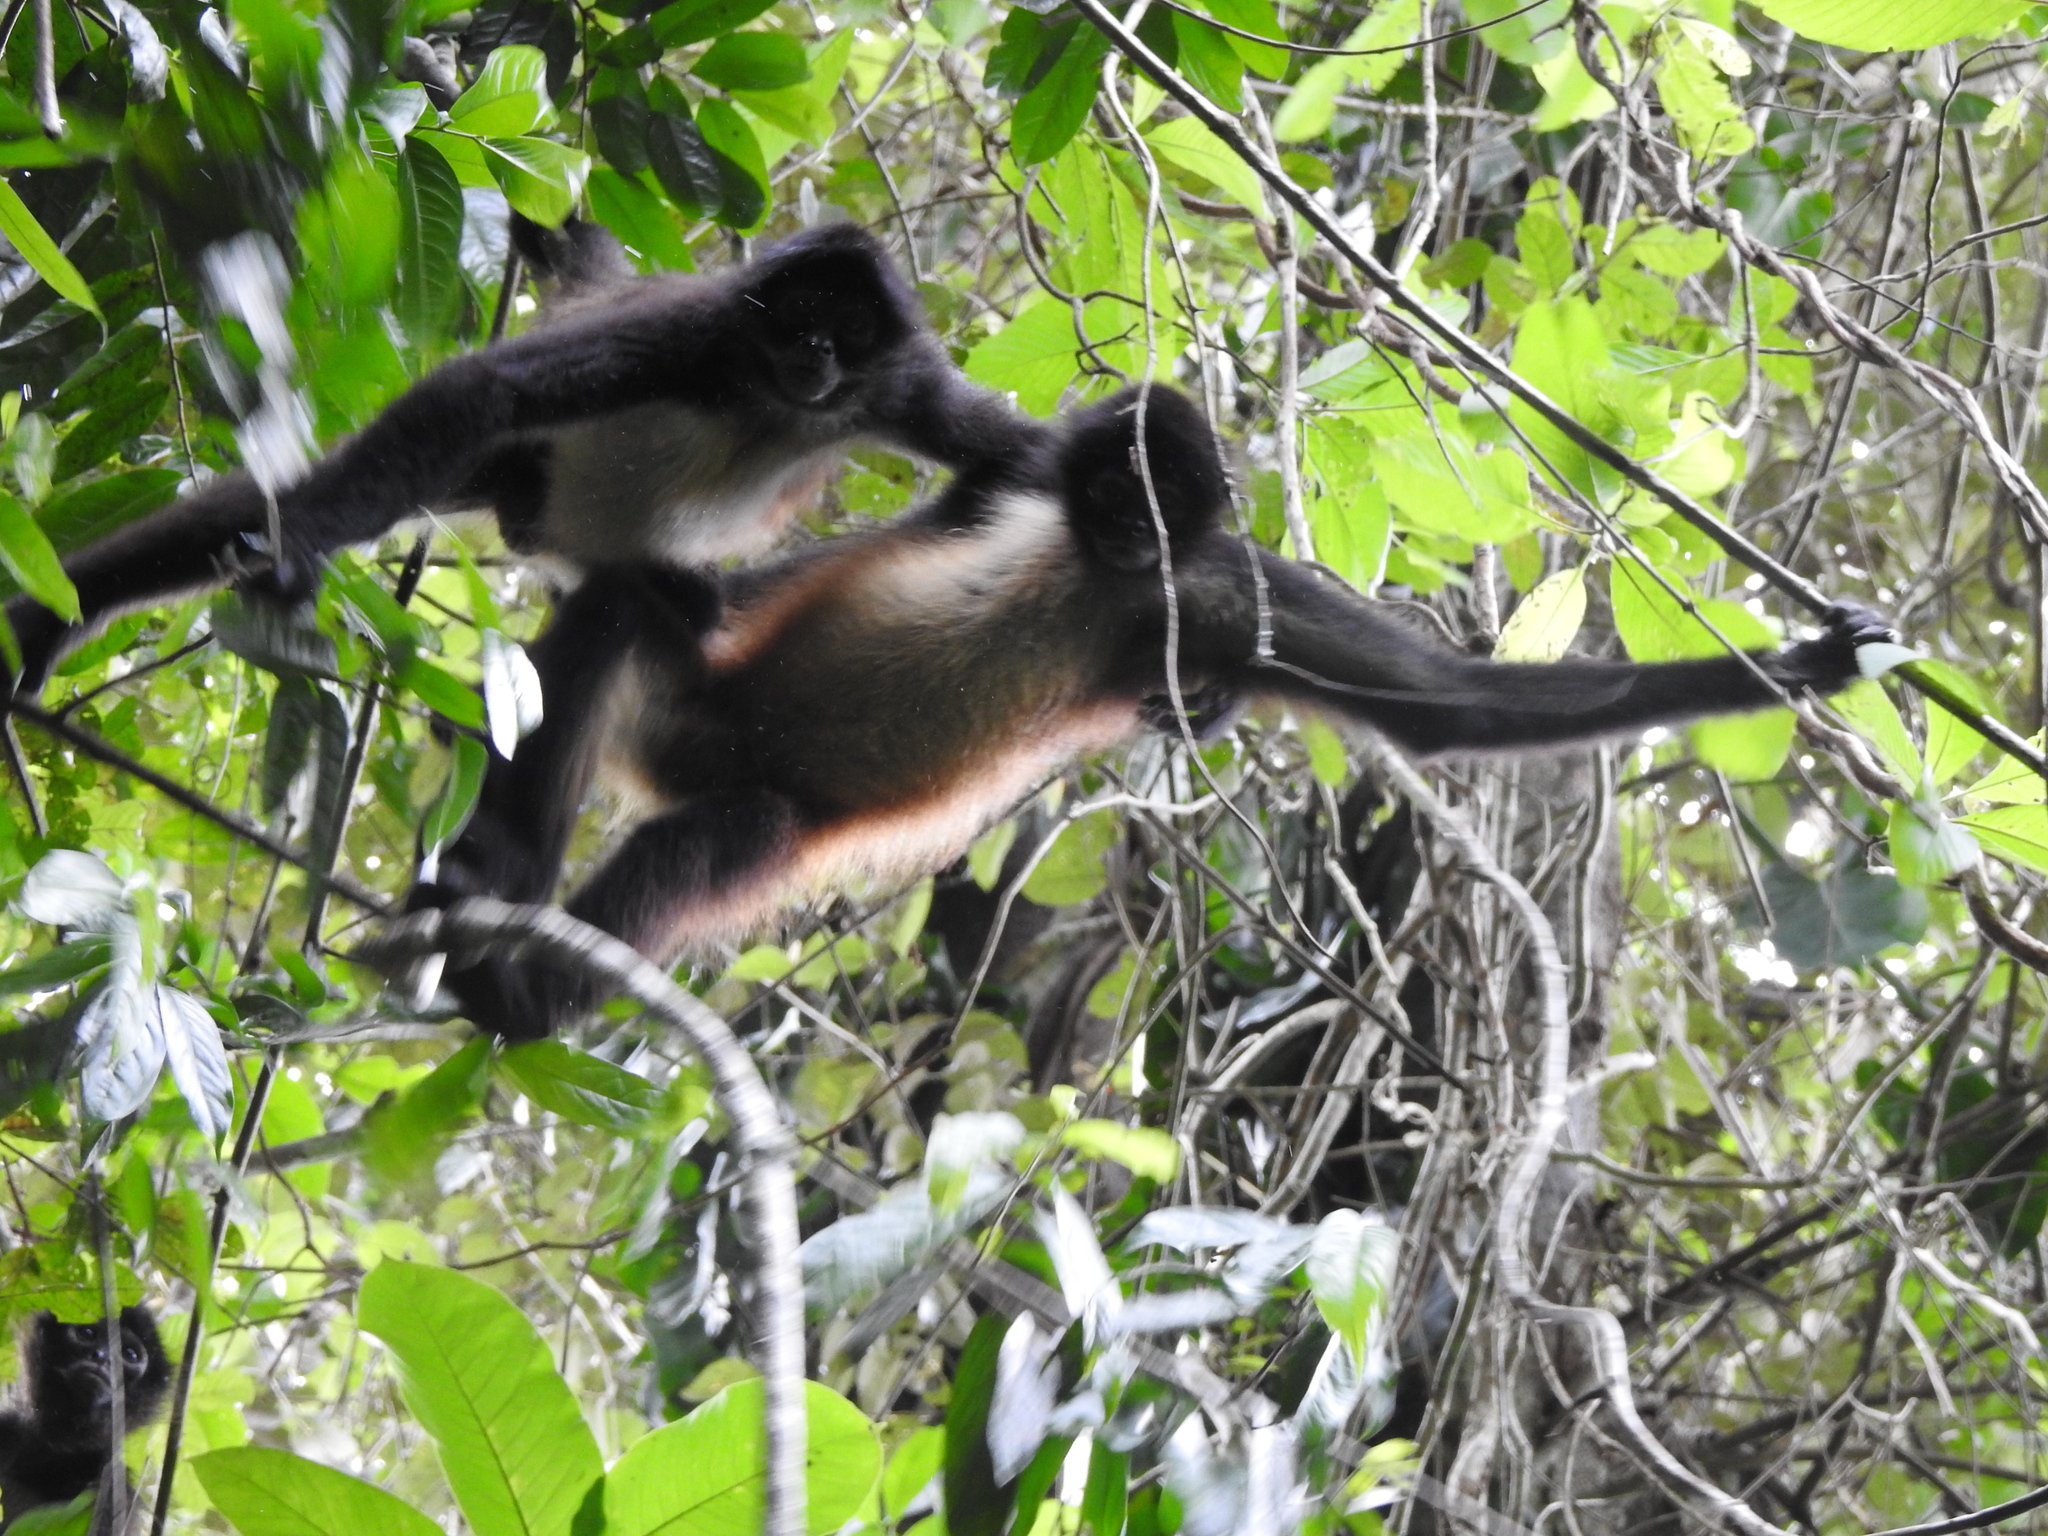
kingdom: Animalia
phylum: Chordata
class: Mammalia
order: Primates
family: Atelidae
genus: Ateles
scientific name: Ateles geoffroyi
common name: Black-handed spider monkey
